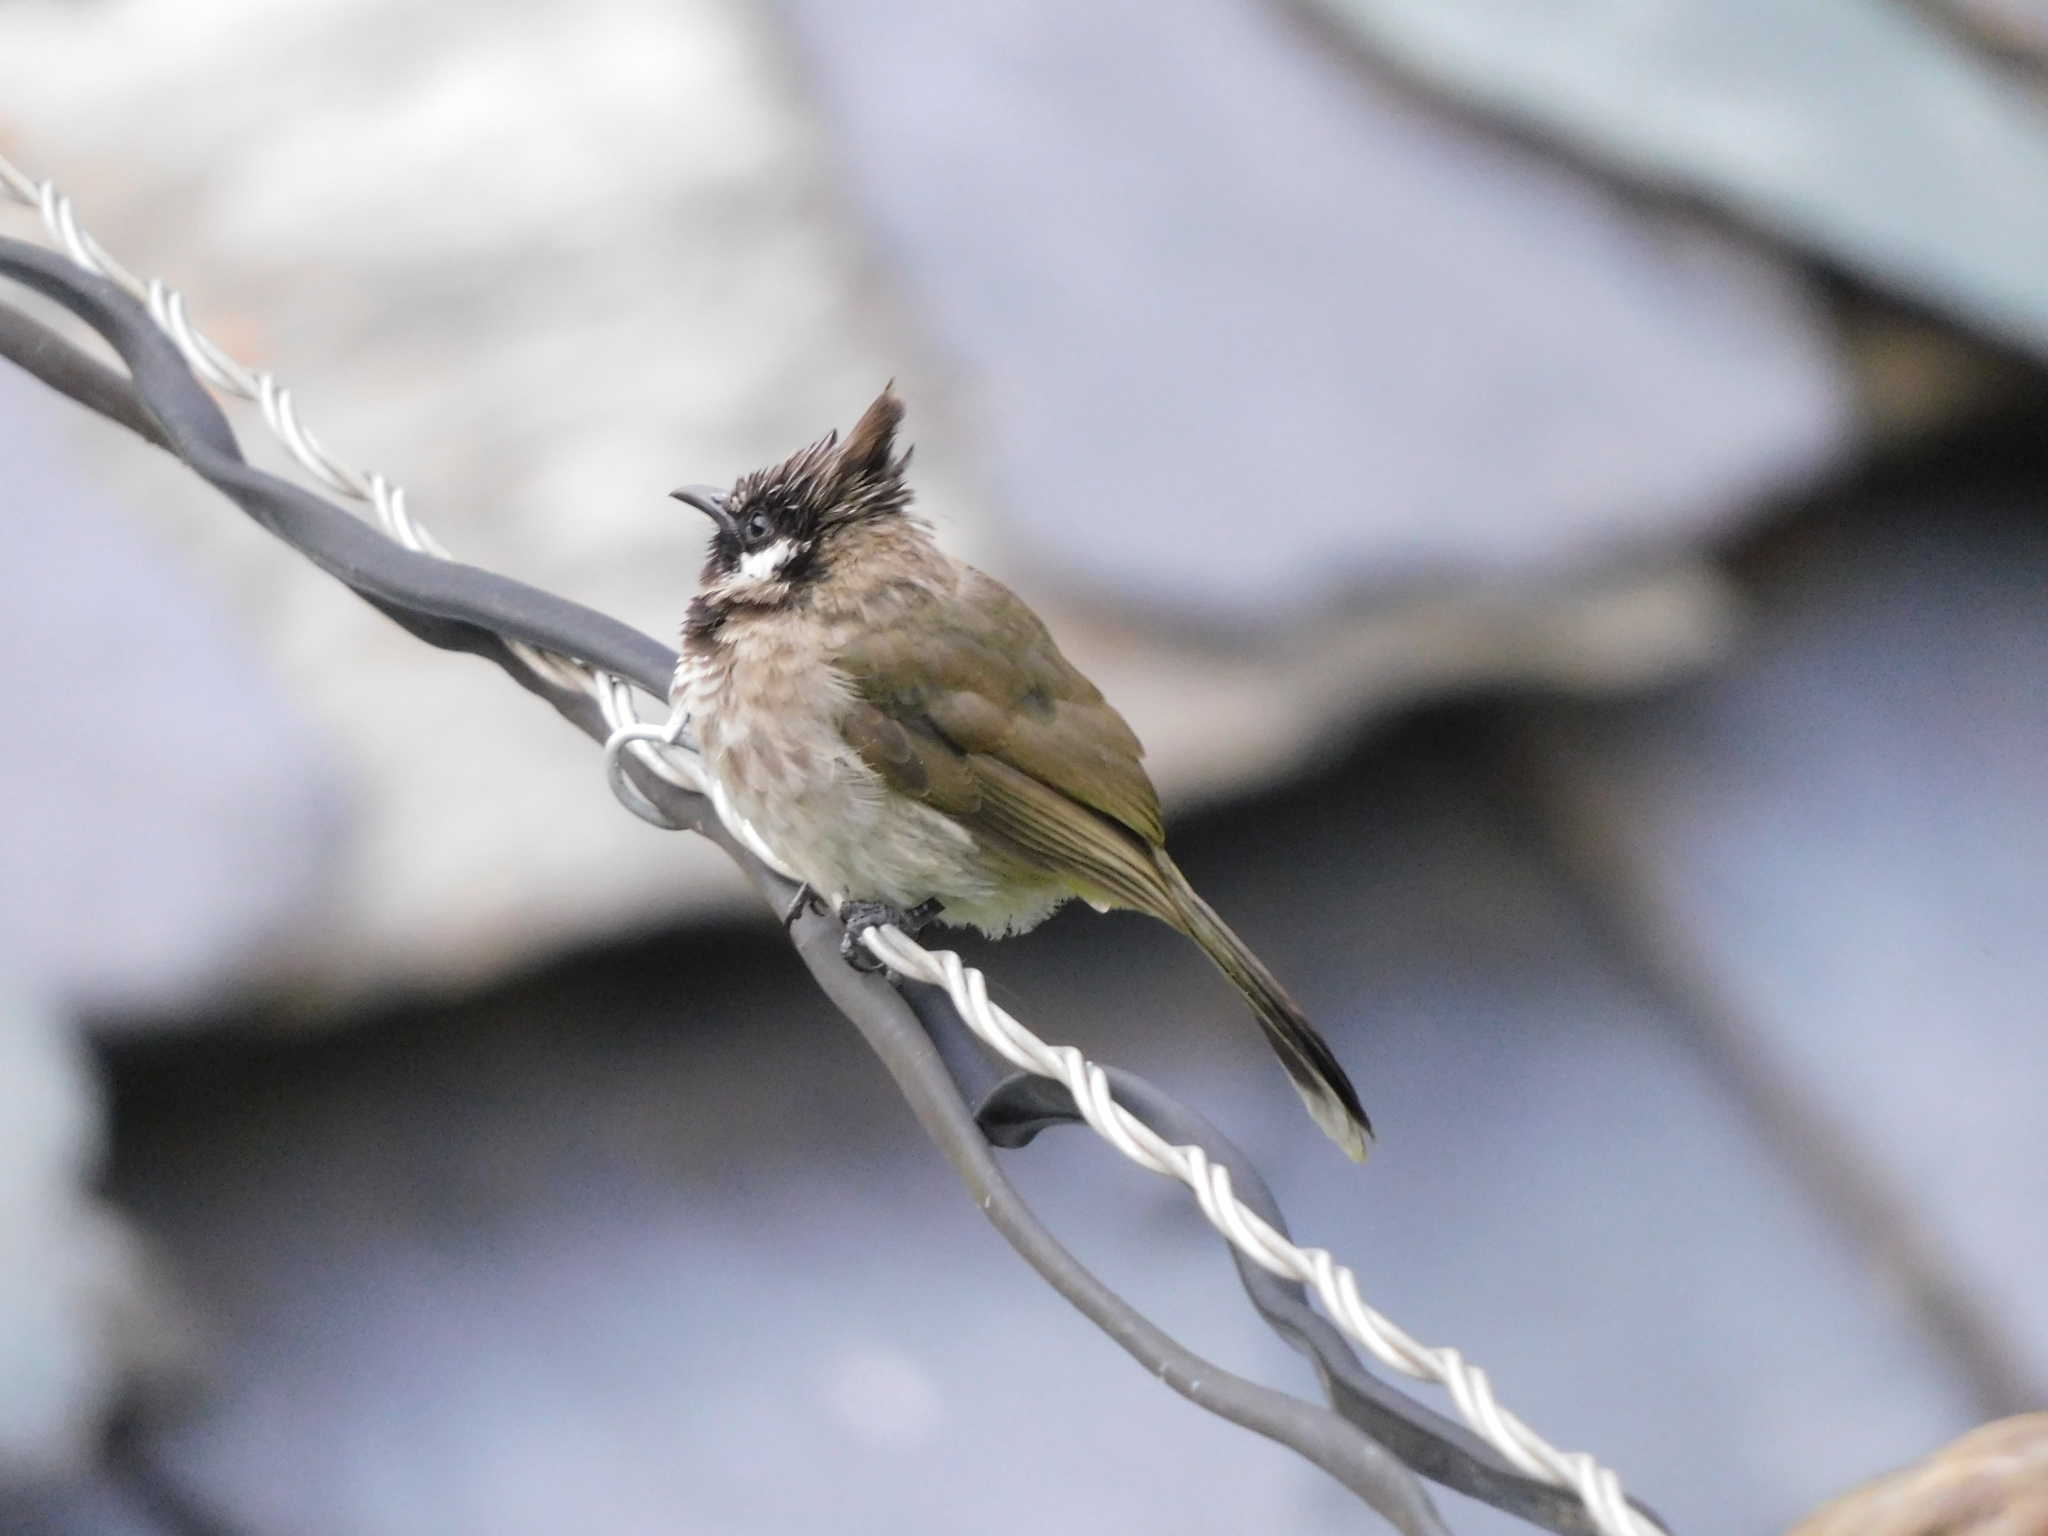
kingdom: Animalia
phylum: Chordata
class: Aves
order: Passeriformes
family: Pycnonotidae
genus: Pycnonotus
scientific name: Pycnonotus leucogenys
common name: Himalayan bulbul
